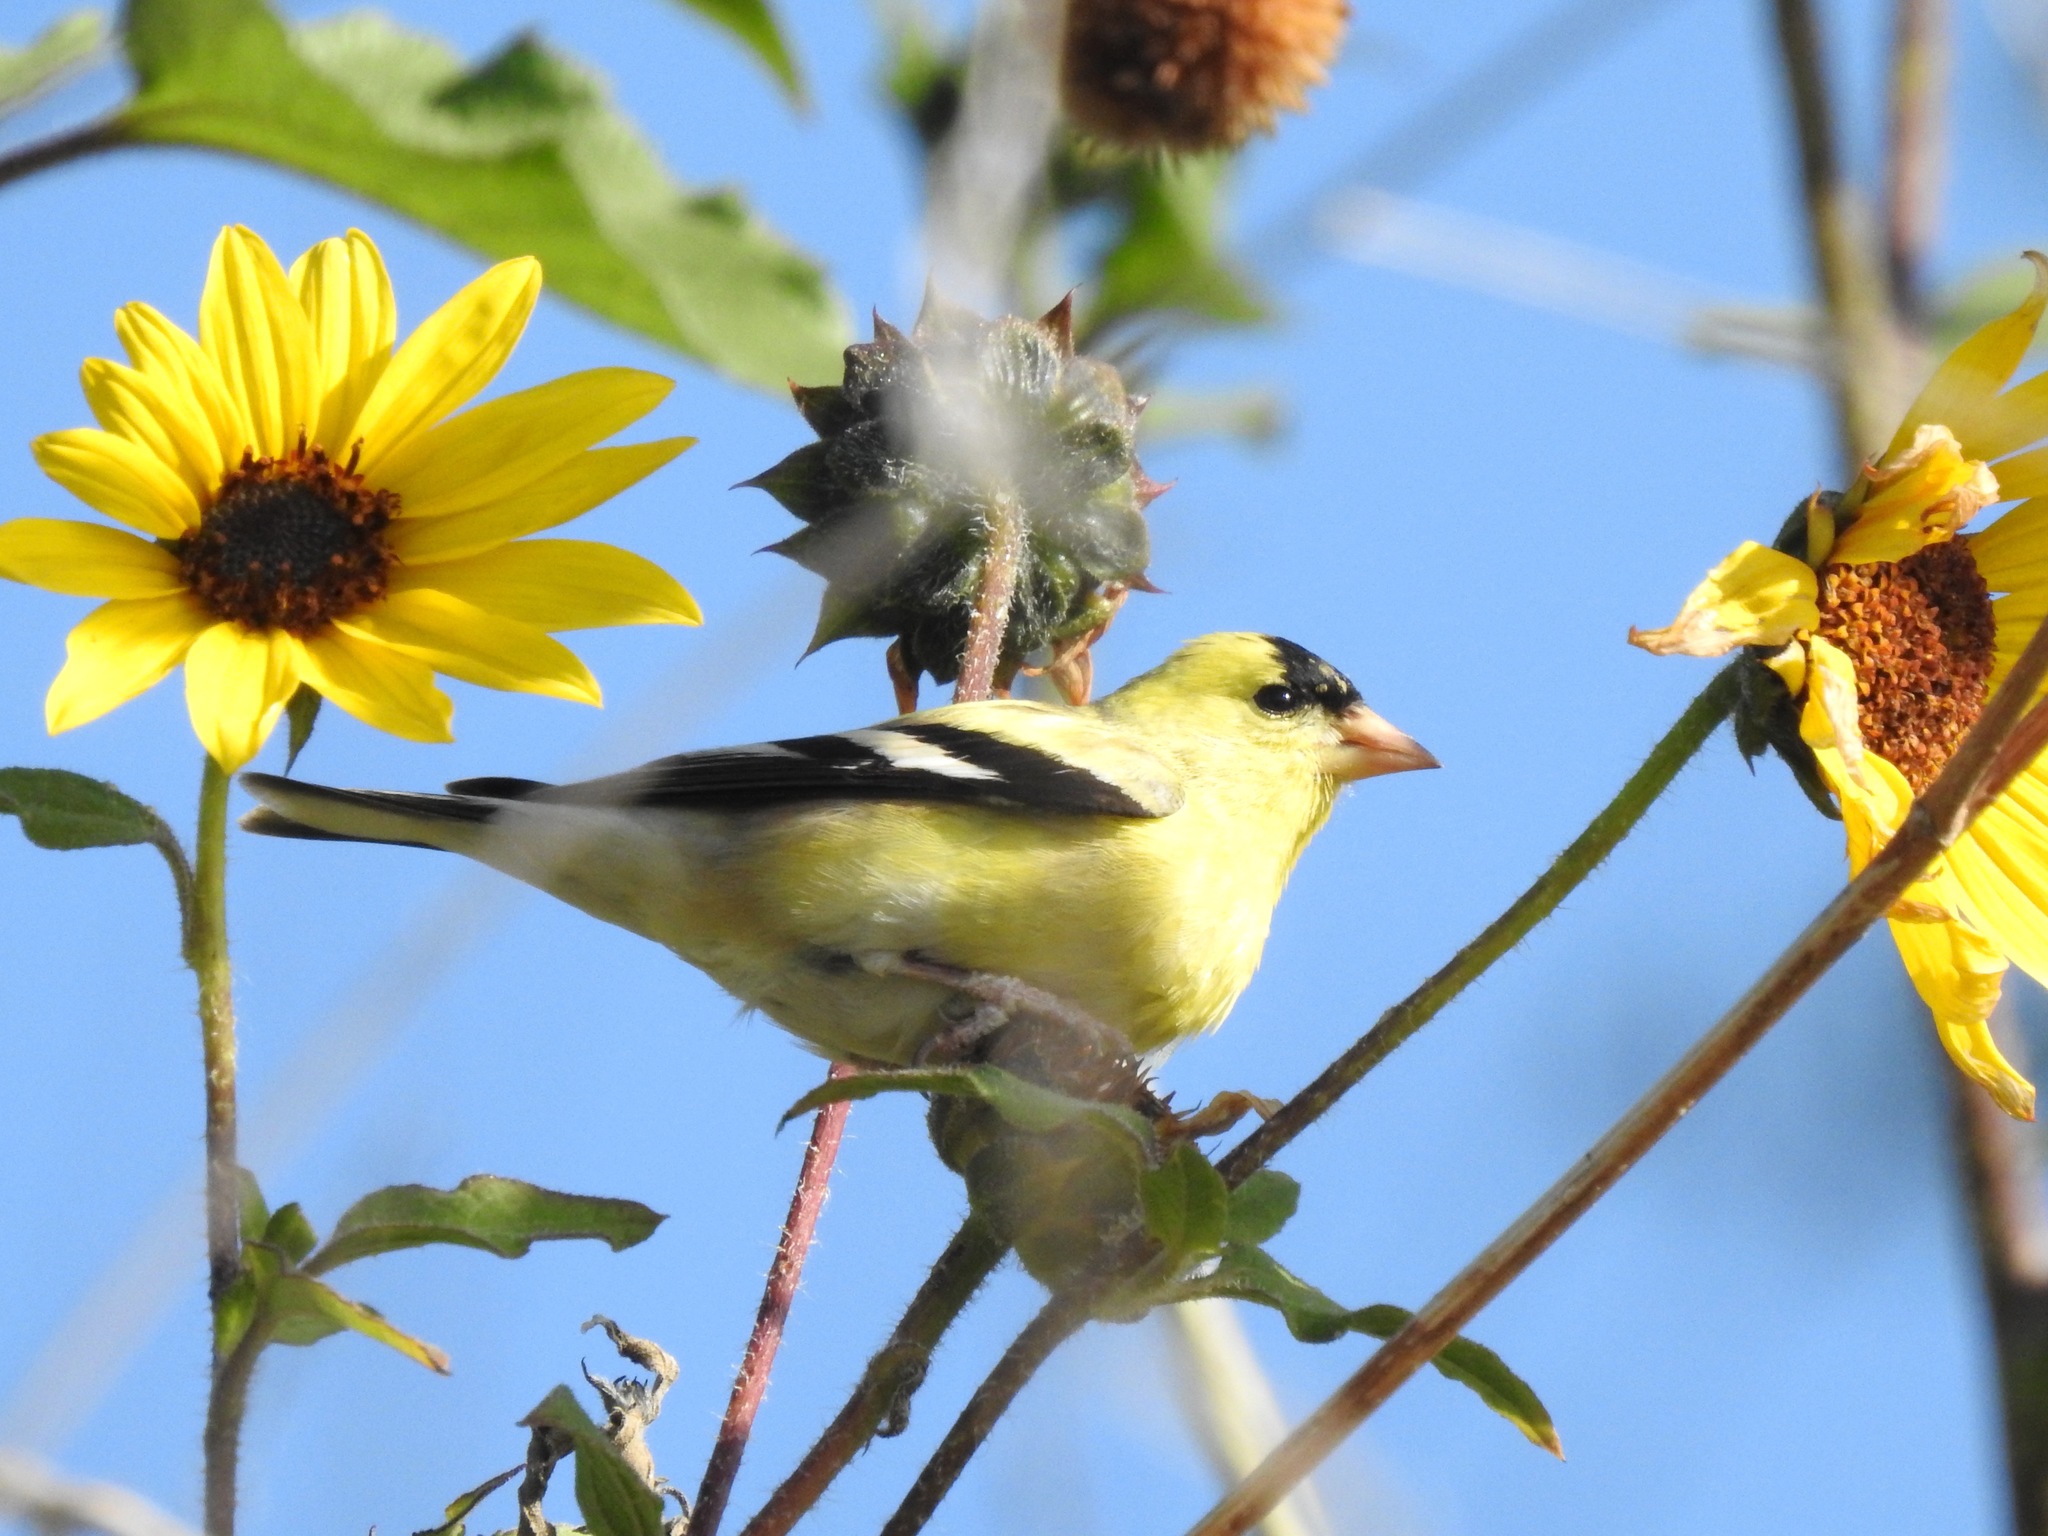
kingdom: Animalia
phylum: Chordata
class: Aves
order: Passeriformes
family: Fringillidae
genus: Spinus
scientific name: Spinus tristis
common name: American goldfinch
